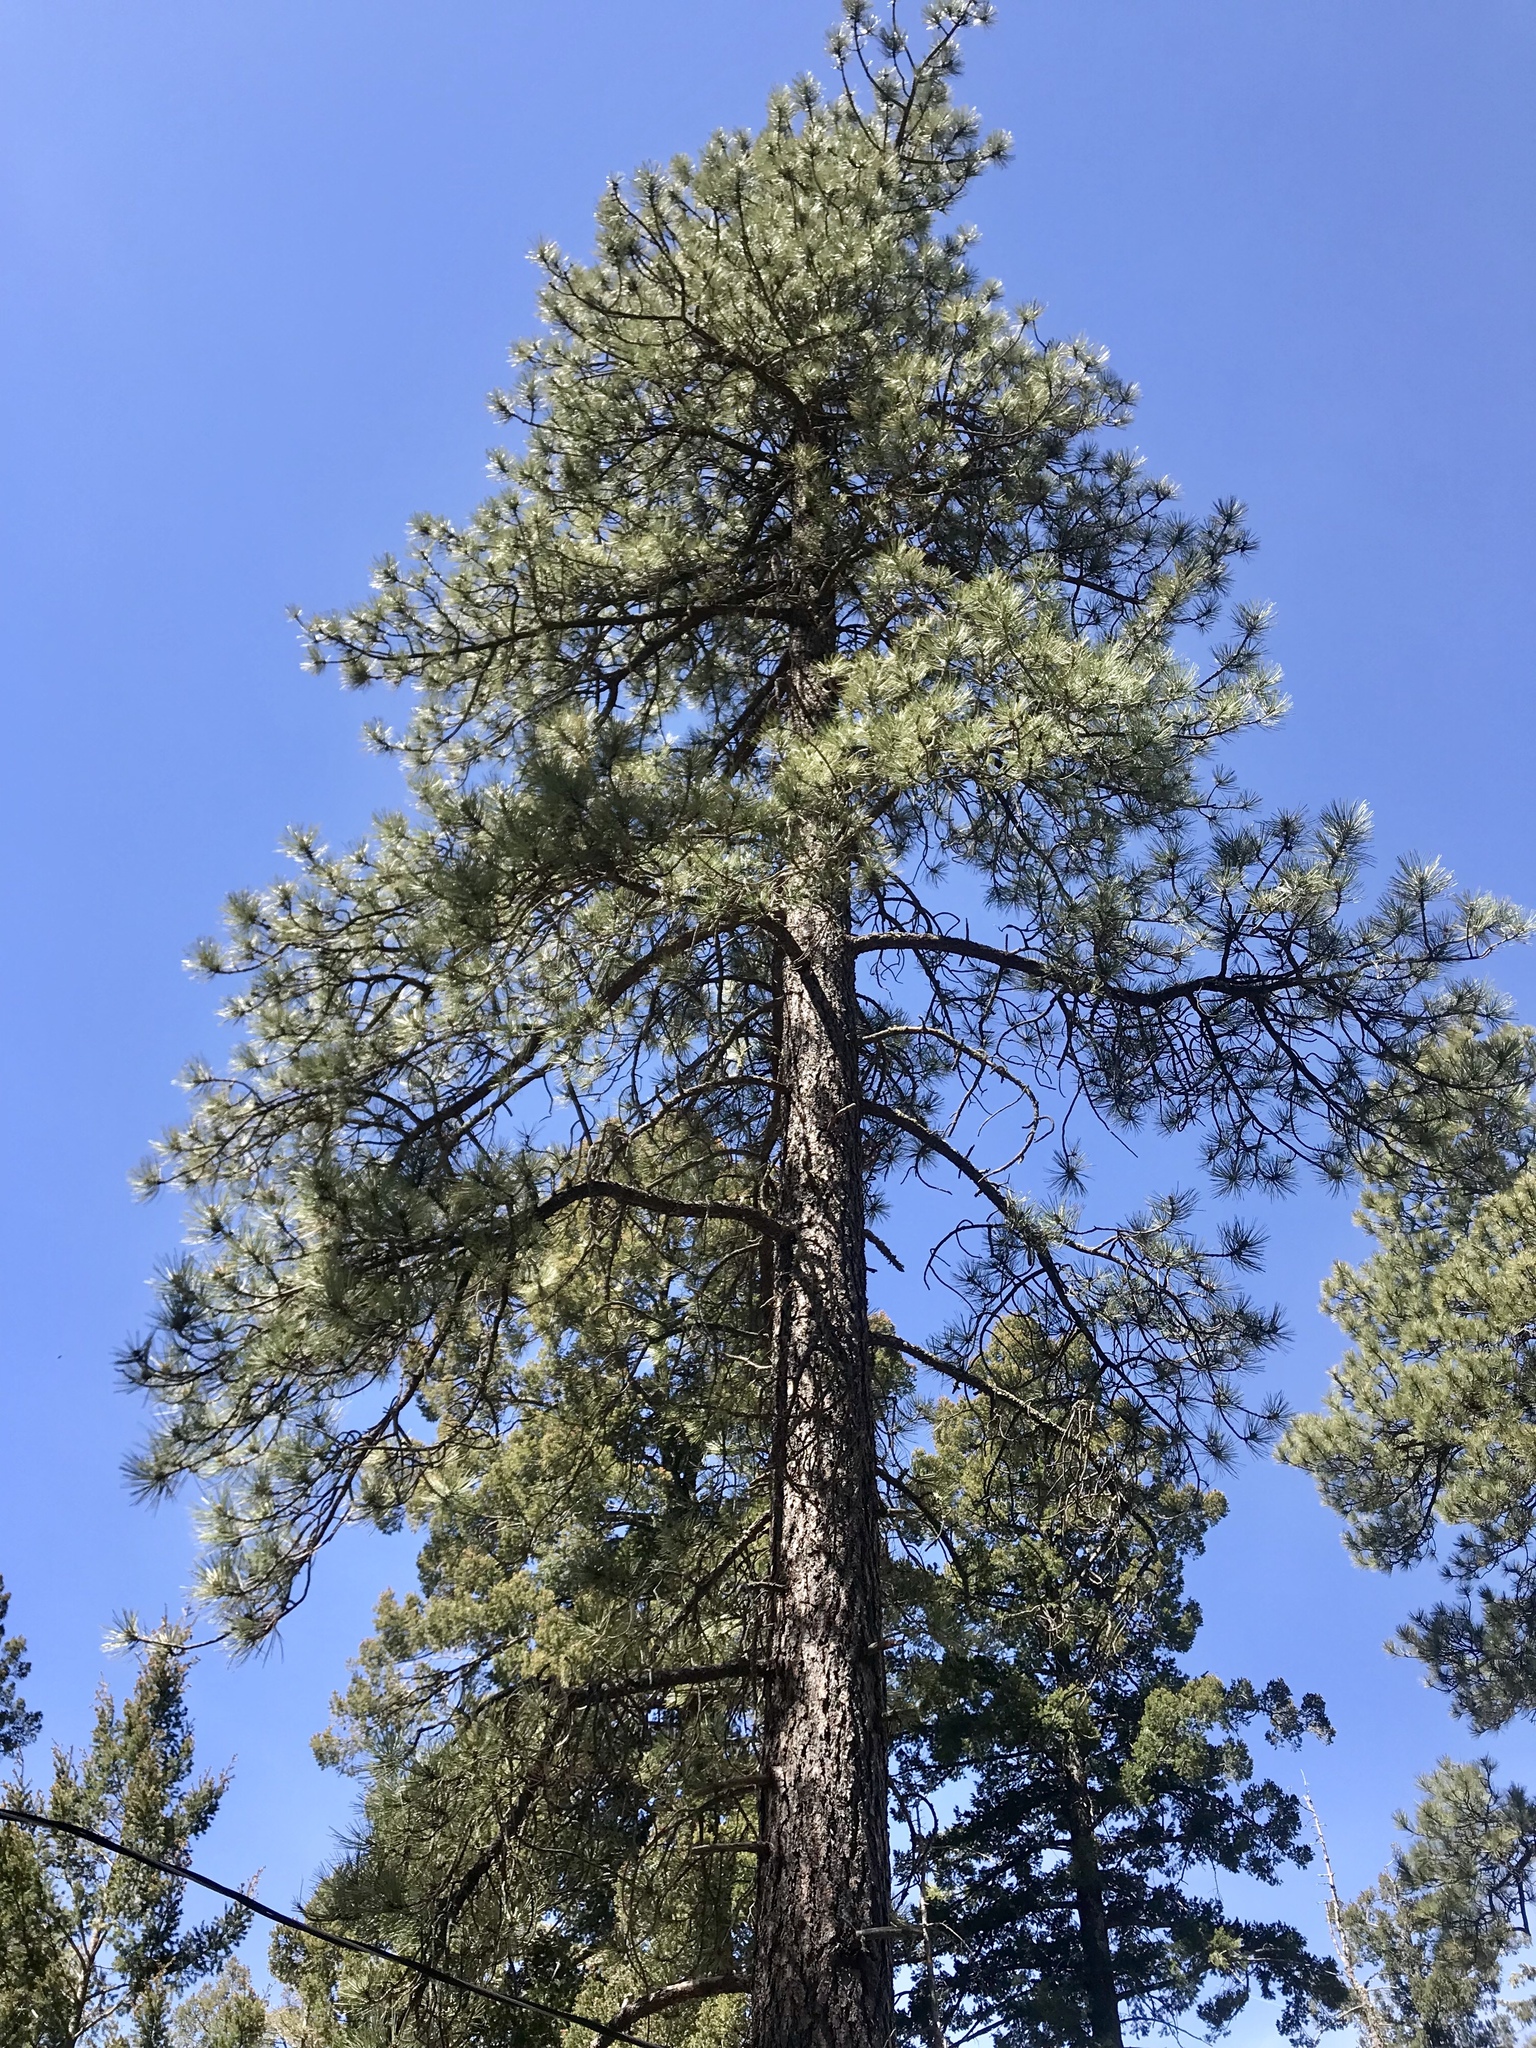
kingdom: Plantae
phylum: Tracheophyta
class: Pinopsida
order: Pinales
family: Pinaceae
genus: Pinus
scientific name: Pinus ponderosa
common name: Western yellow-pine
